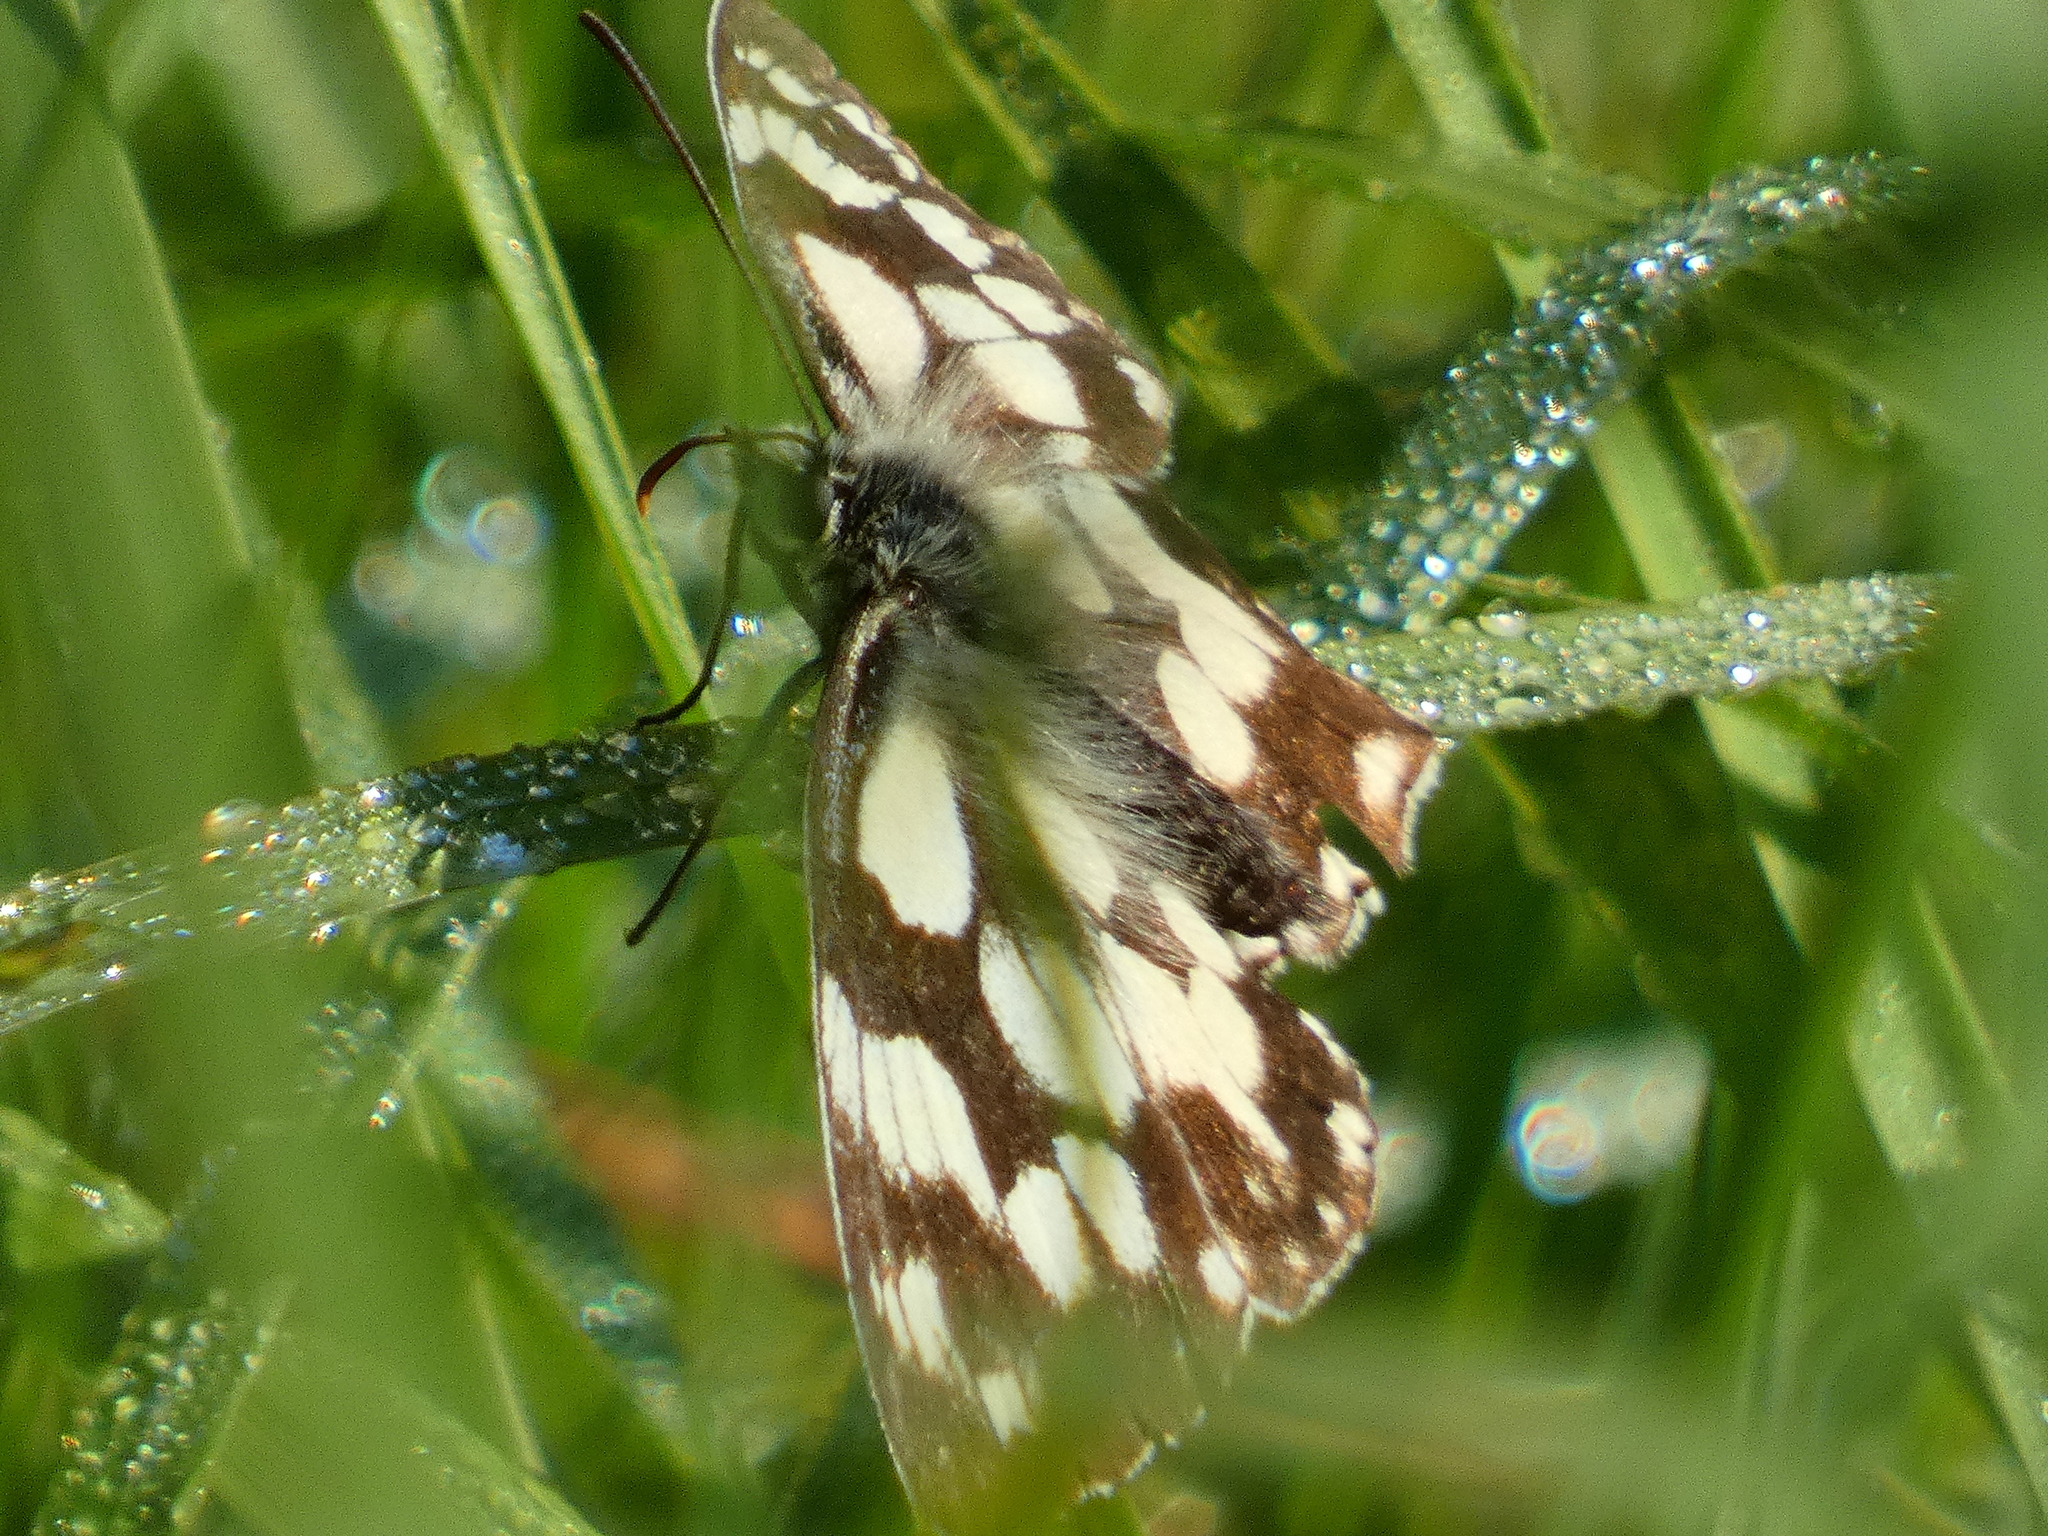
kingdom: Animalia
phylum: Arthropoda
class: Insecta
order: Lepidoptera
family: Nymphalidae
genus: Melanargia
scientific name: Melanargia galathea
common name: Marbled white
